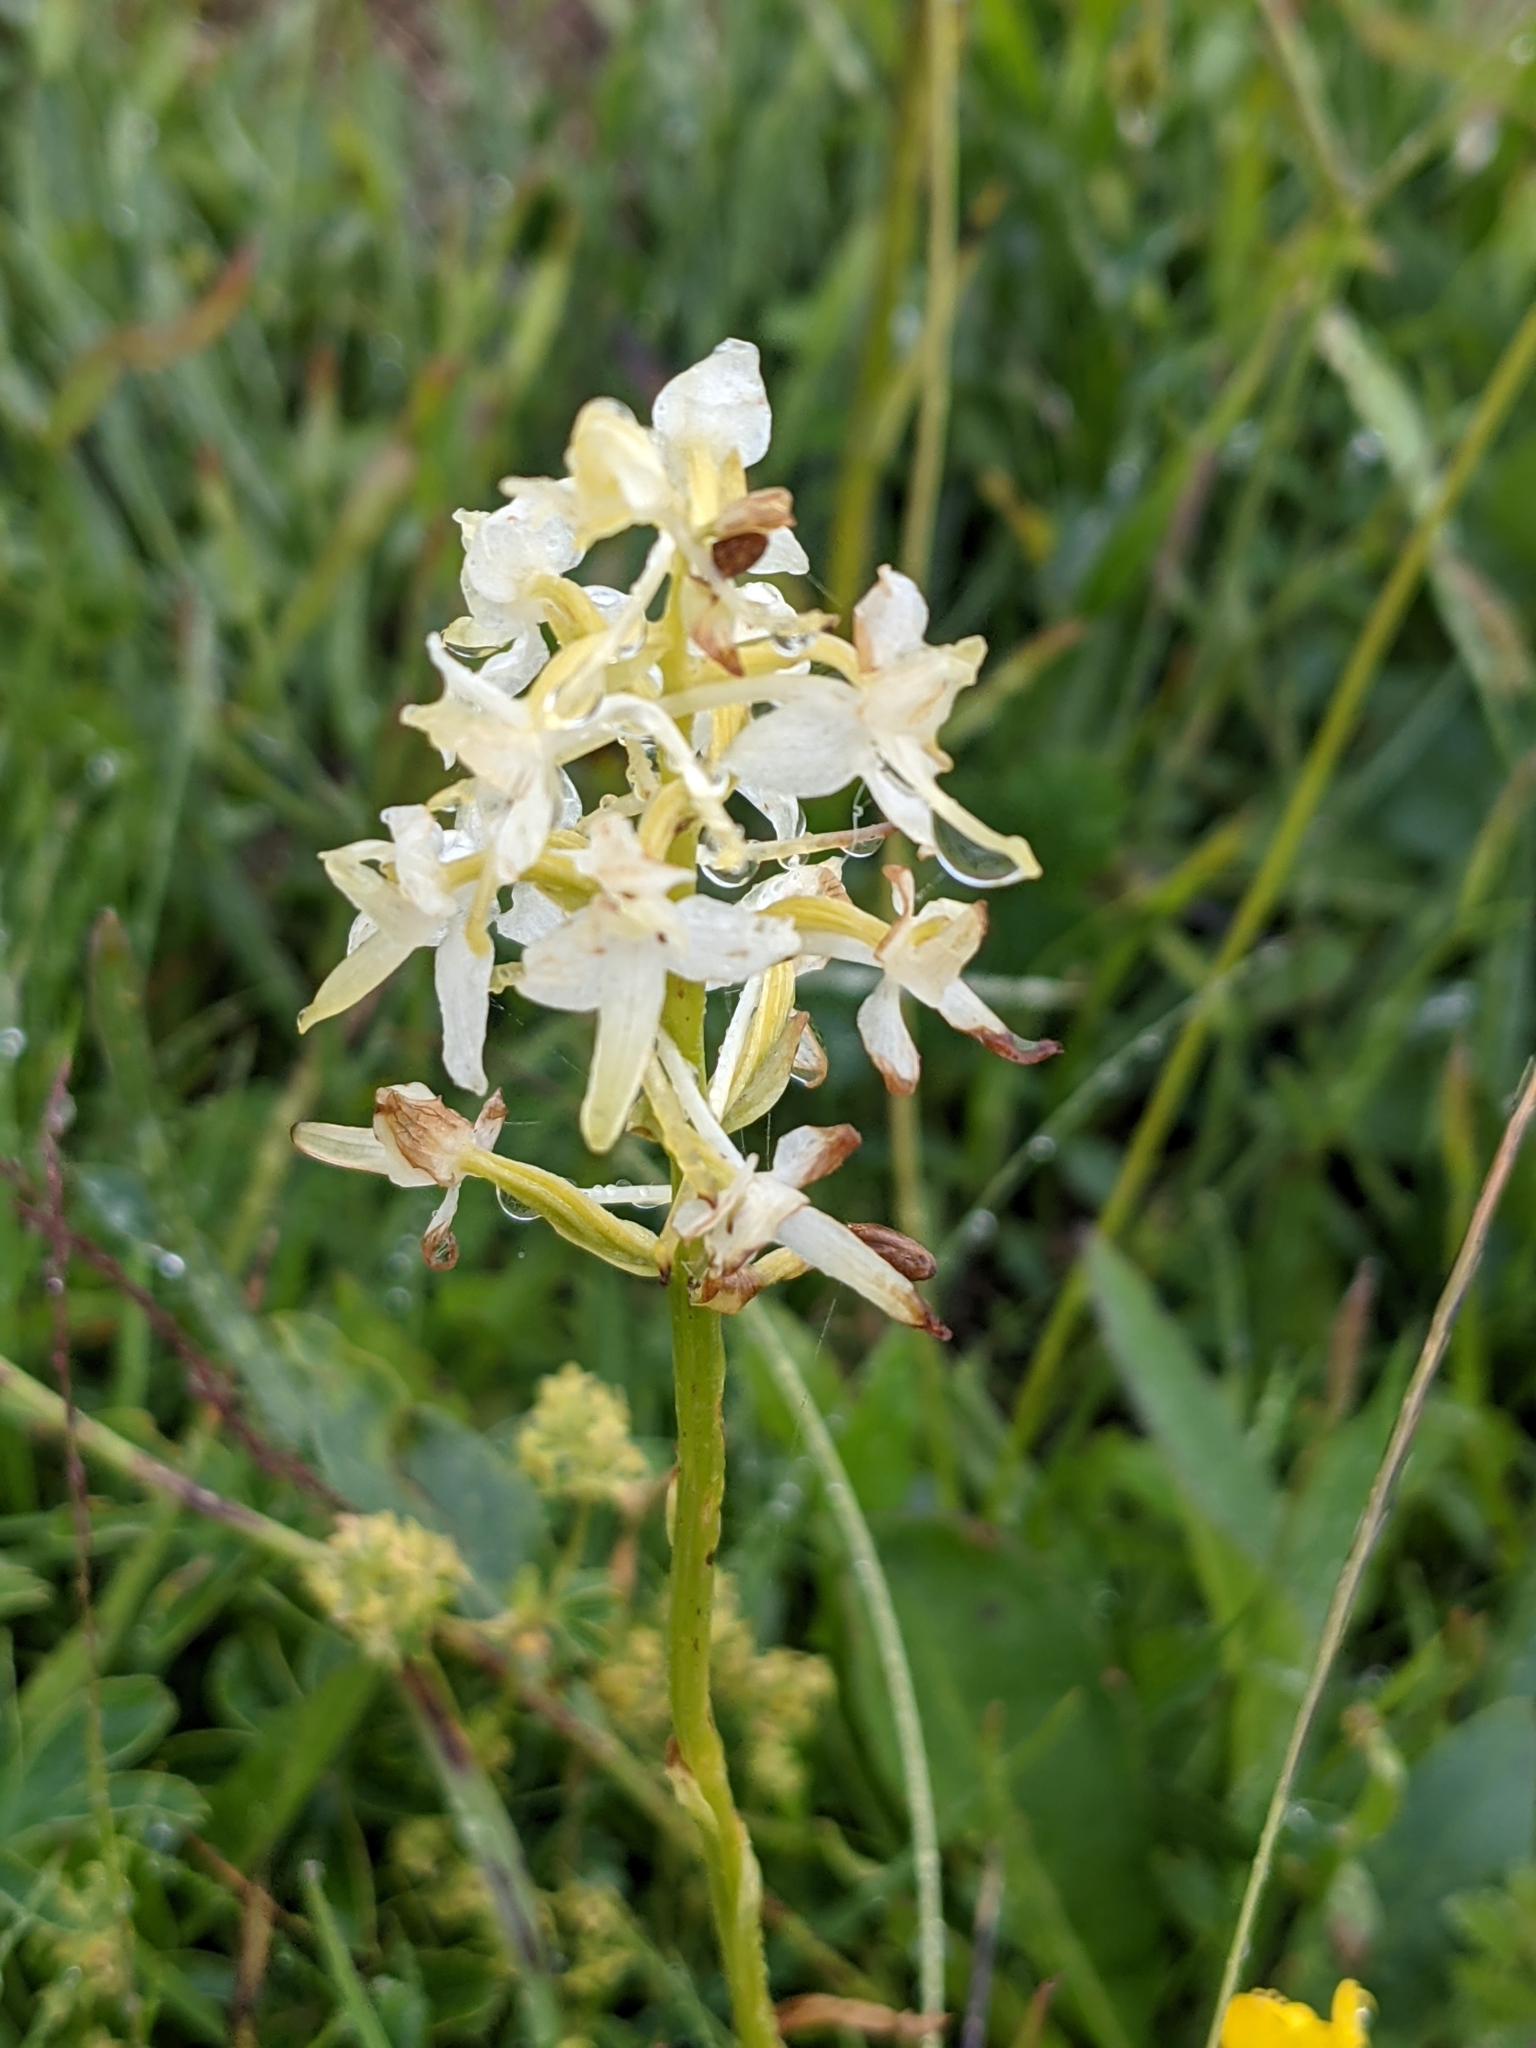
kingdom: Plantae
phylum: Tracheophyta
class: Liliopsida
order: Asparagales
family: Orchidaceae
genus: Platanthera
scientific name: Platanthera bifolia
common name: Lesser butterfly-orchid
